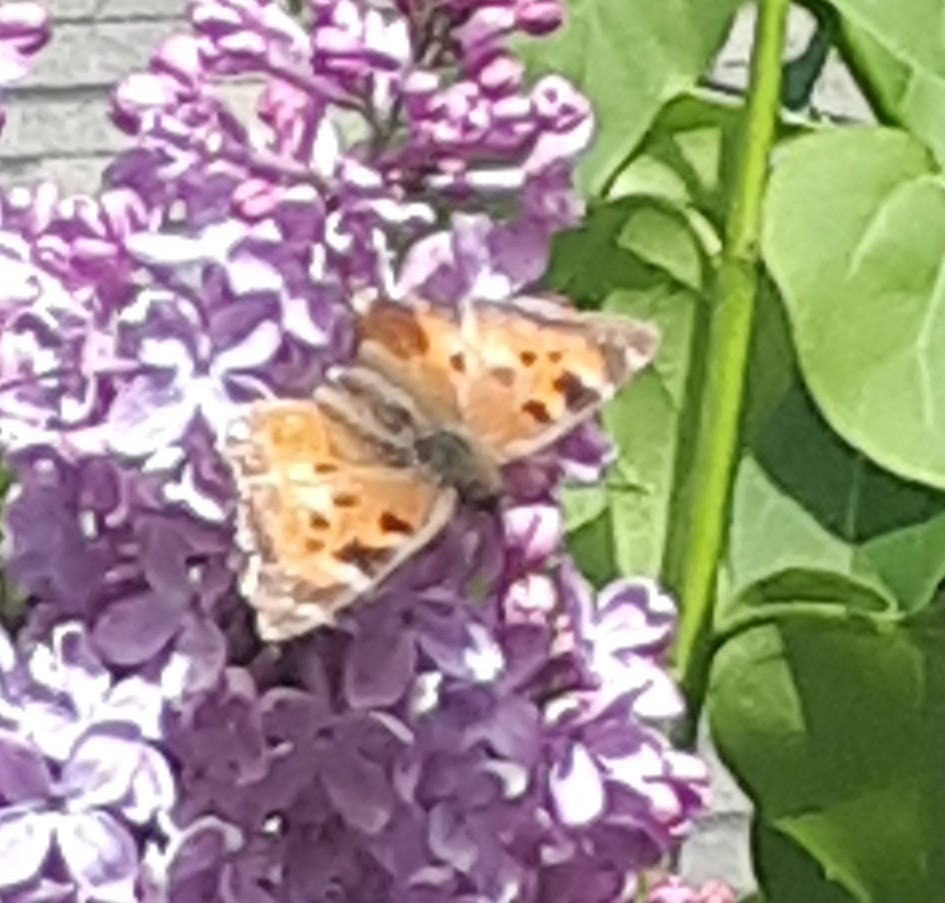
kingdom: Animalia
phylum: Arthropoda
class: Insecta
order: Lepidoptera
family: Nymphalidae
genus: Nymphalis
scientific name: Nymphalis californica
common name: California tortoiseshell
